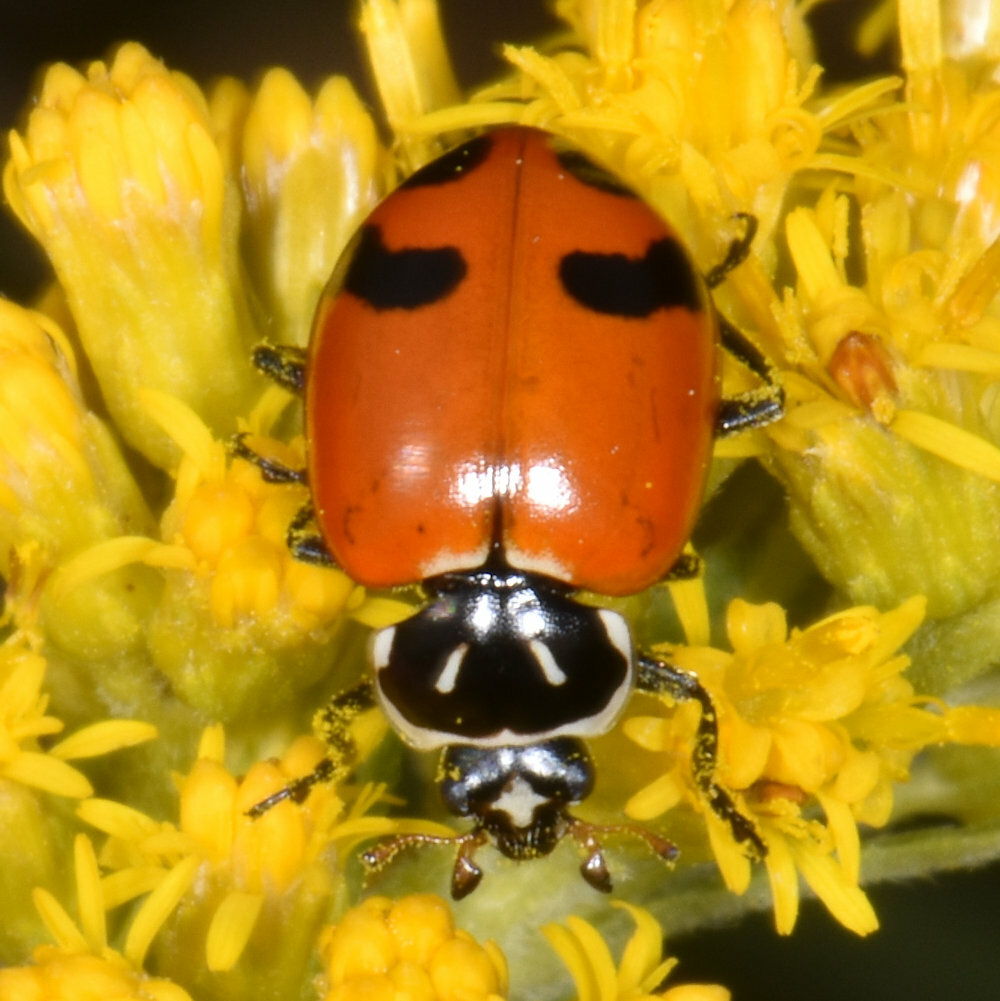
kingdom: Animalia
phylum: Arthropoda
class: Insecta
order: Coleoptera
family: Coccinellidae
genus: Hippodamia
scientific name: Hippodamia glacialis
